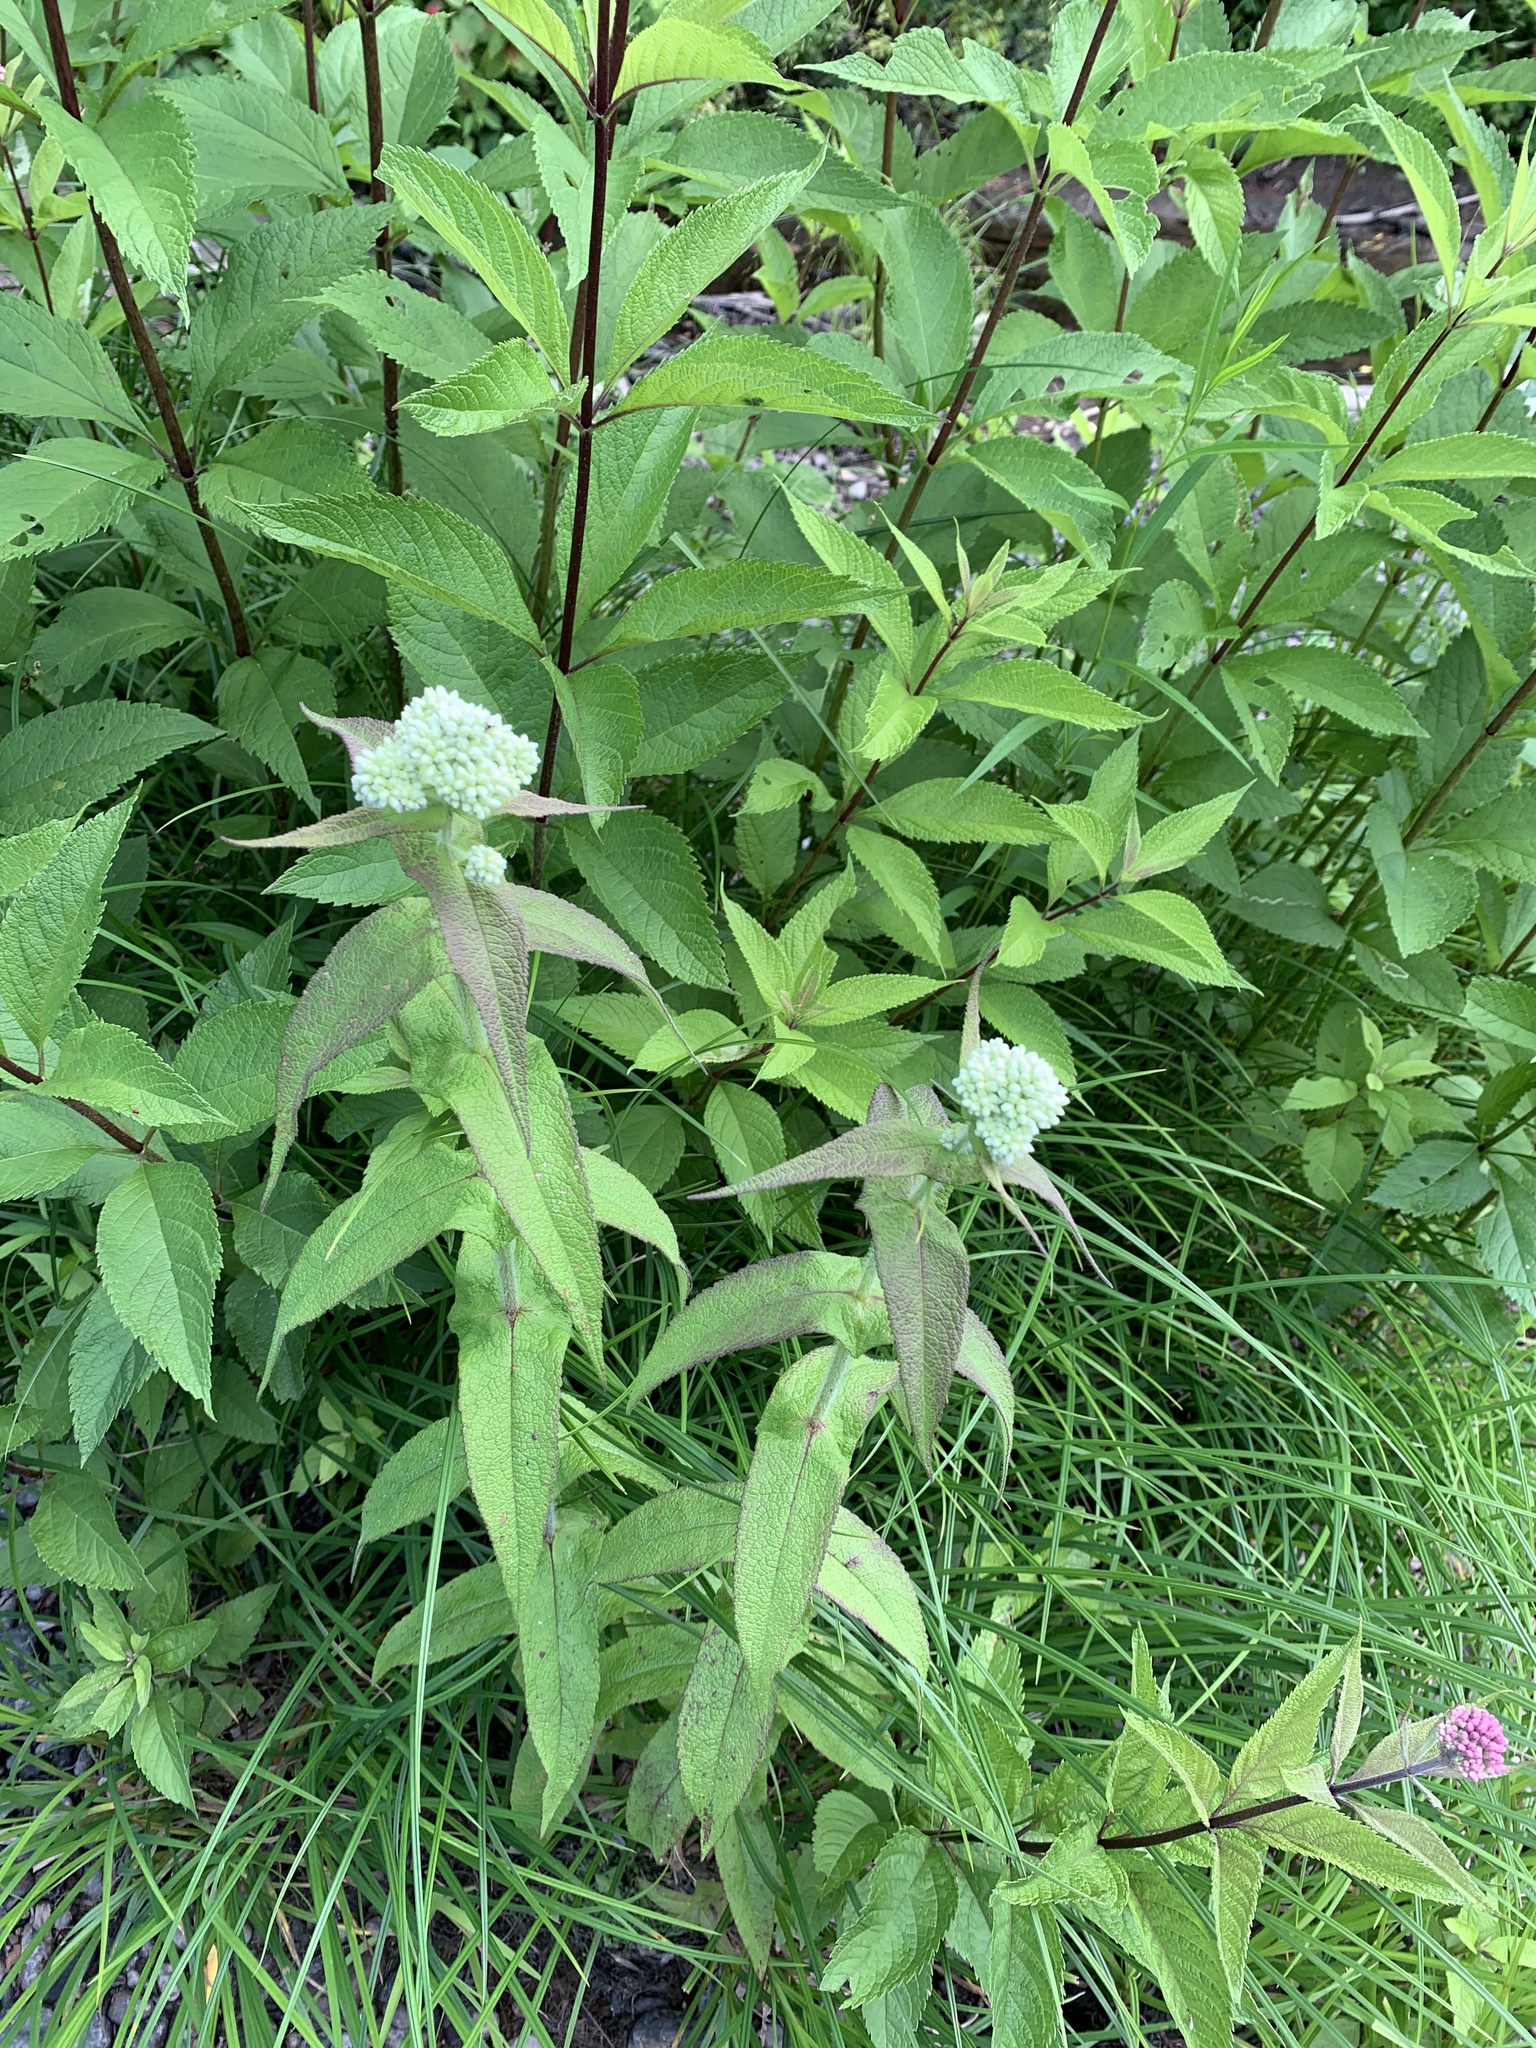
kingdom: Plantae
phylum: Tracheophyta
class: Magnoliopsida
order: Asterales
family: Asteraceae
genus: Eupatorium
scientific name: Eupatorium perfoliatum
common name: Boneset
